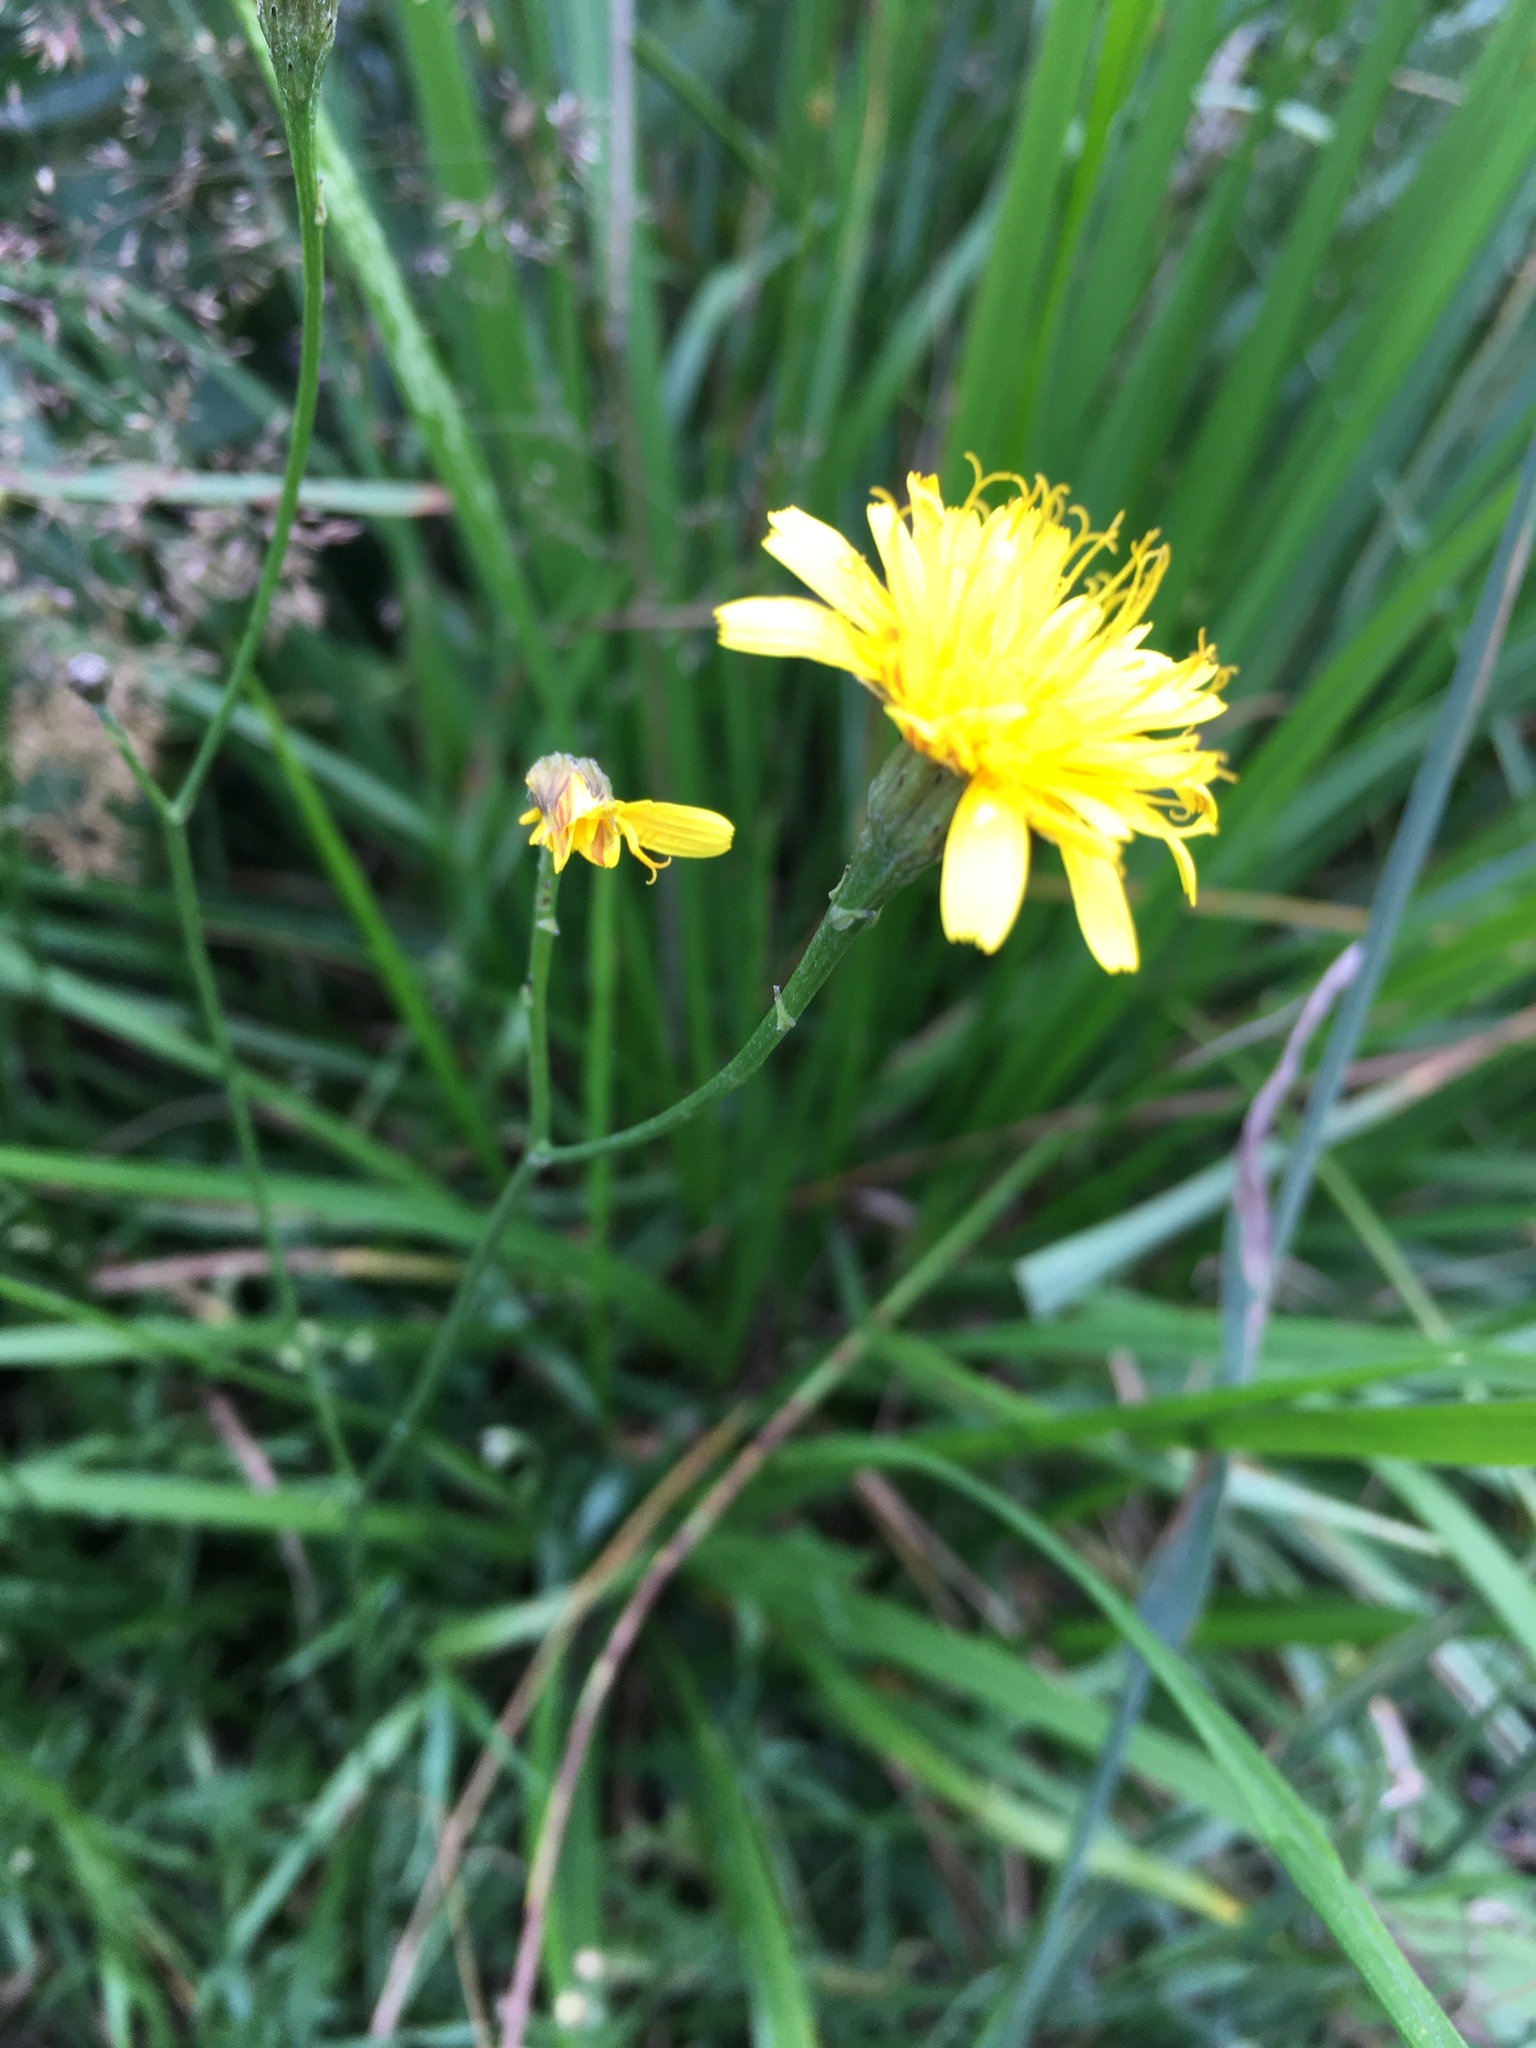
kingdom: Plantae
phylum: Tracheophyta
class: Magnoliopsida
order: Asterales
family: Asteraceae
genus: Scorzoneroides
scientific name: Scorzoneroides autumnalis
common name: Autumn hawkbit
